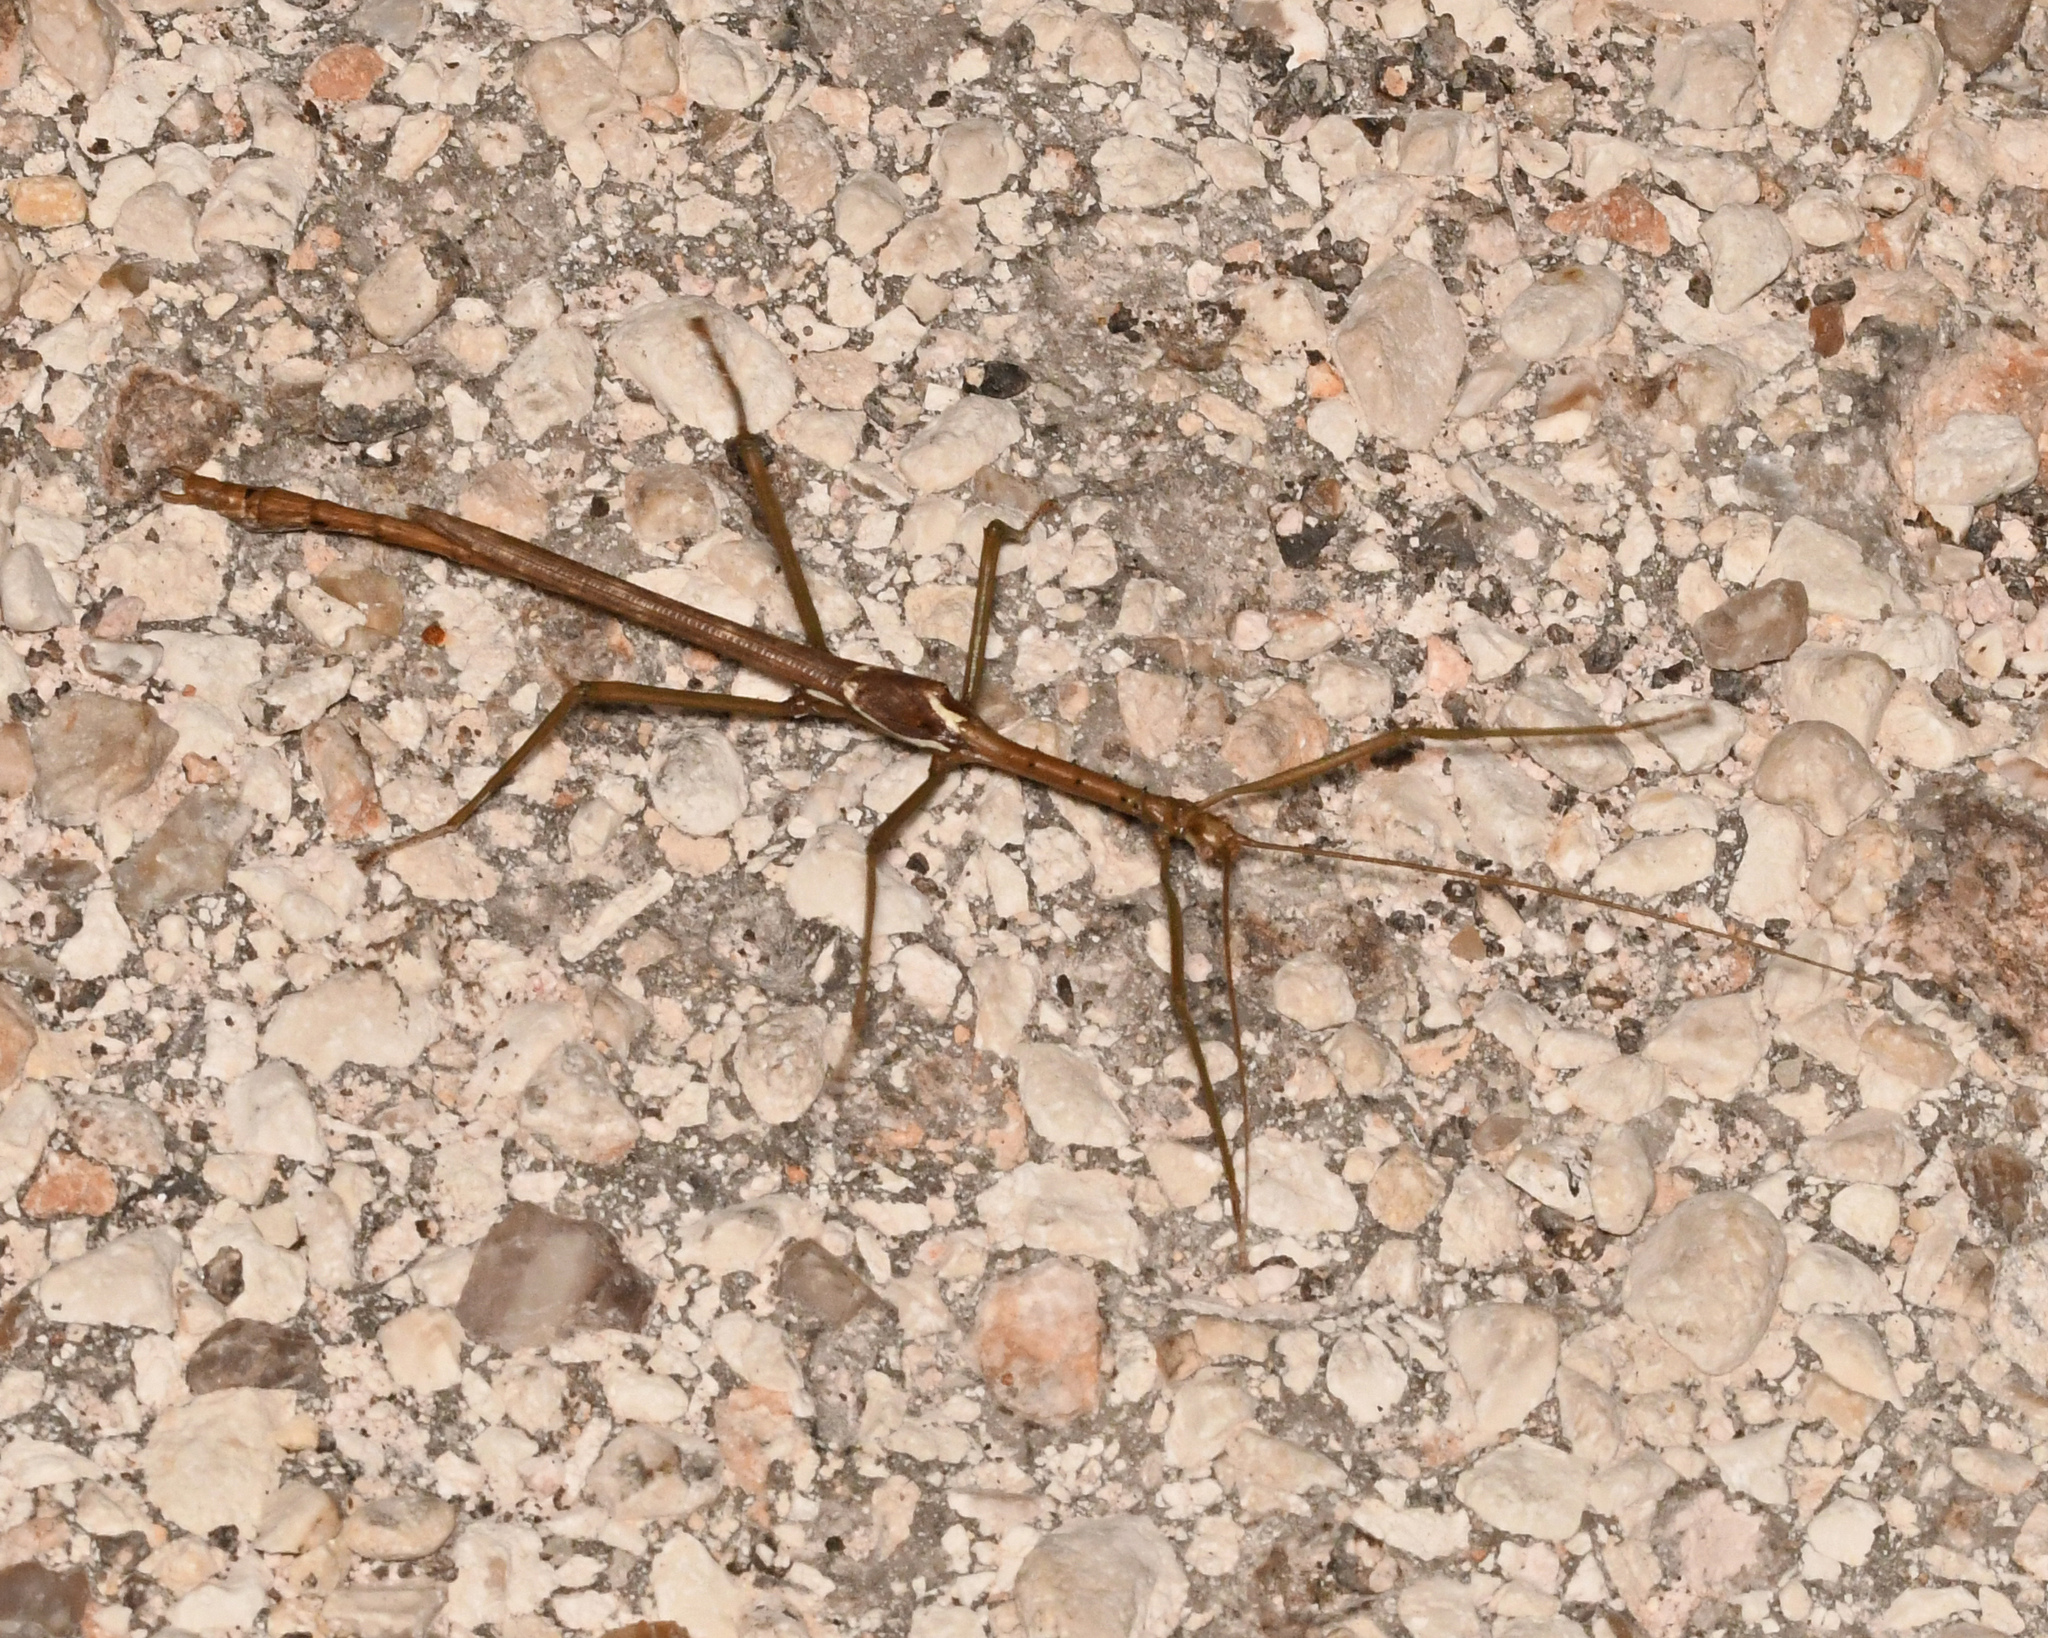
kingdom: Animalia
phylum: Arthropoda
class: Insecta
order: Phasmida
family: Phasmatidae
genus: Haplopus
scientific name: Haplopus micropterus
